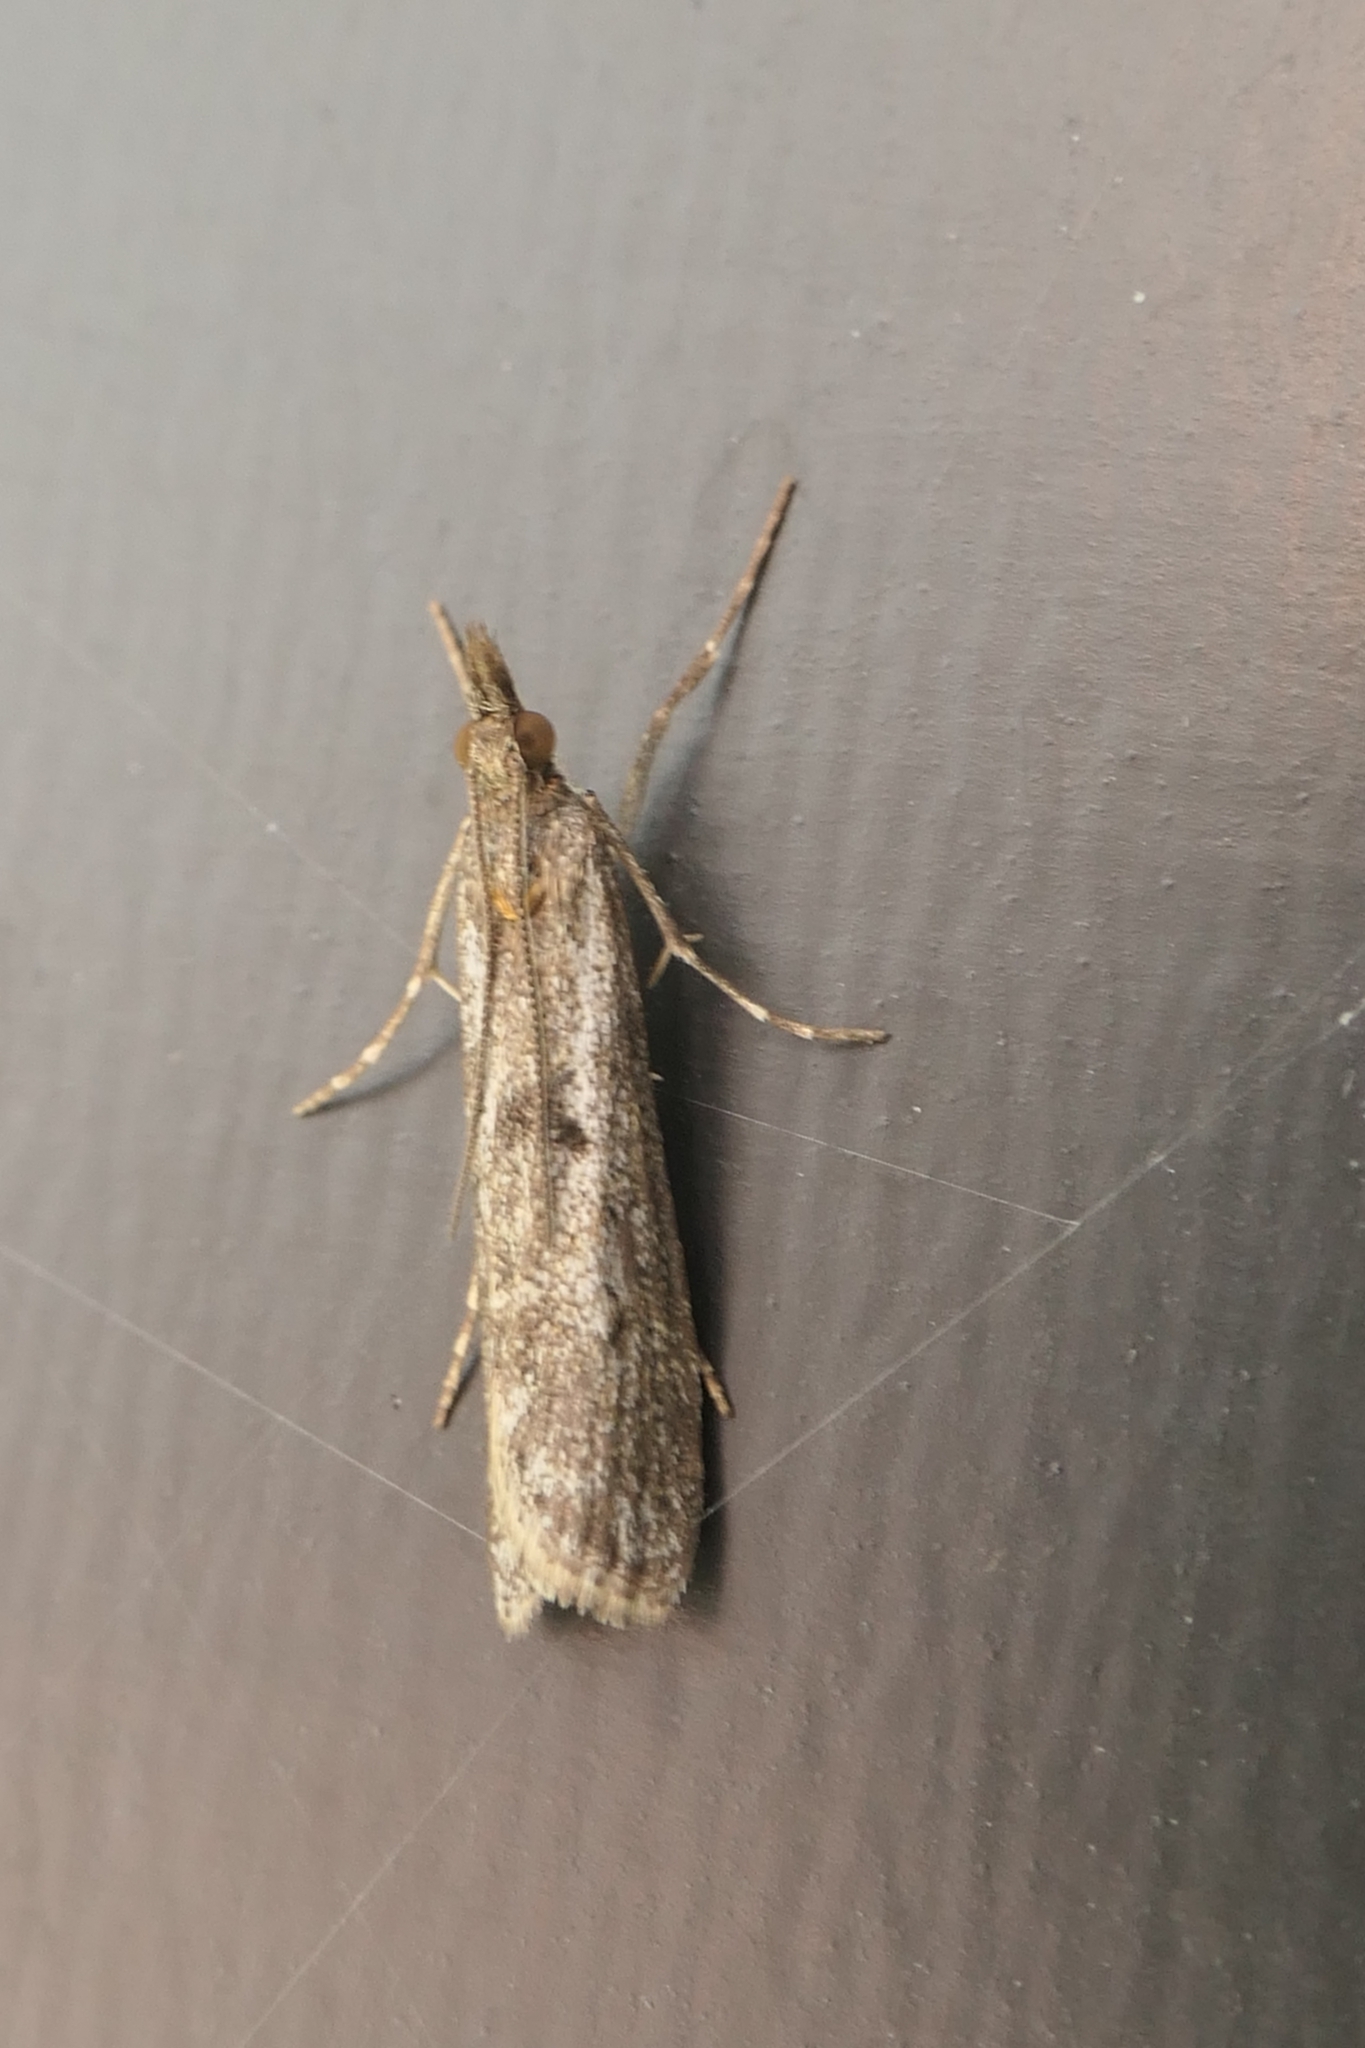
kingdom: Animalia
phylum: Arthropoda
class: Insecta
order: Lepidoptera
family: Crambidae
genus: Eudonia
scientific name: Eudonia leptalea
